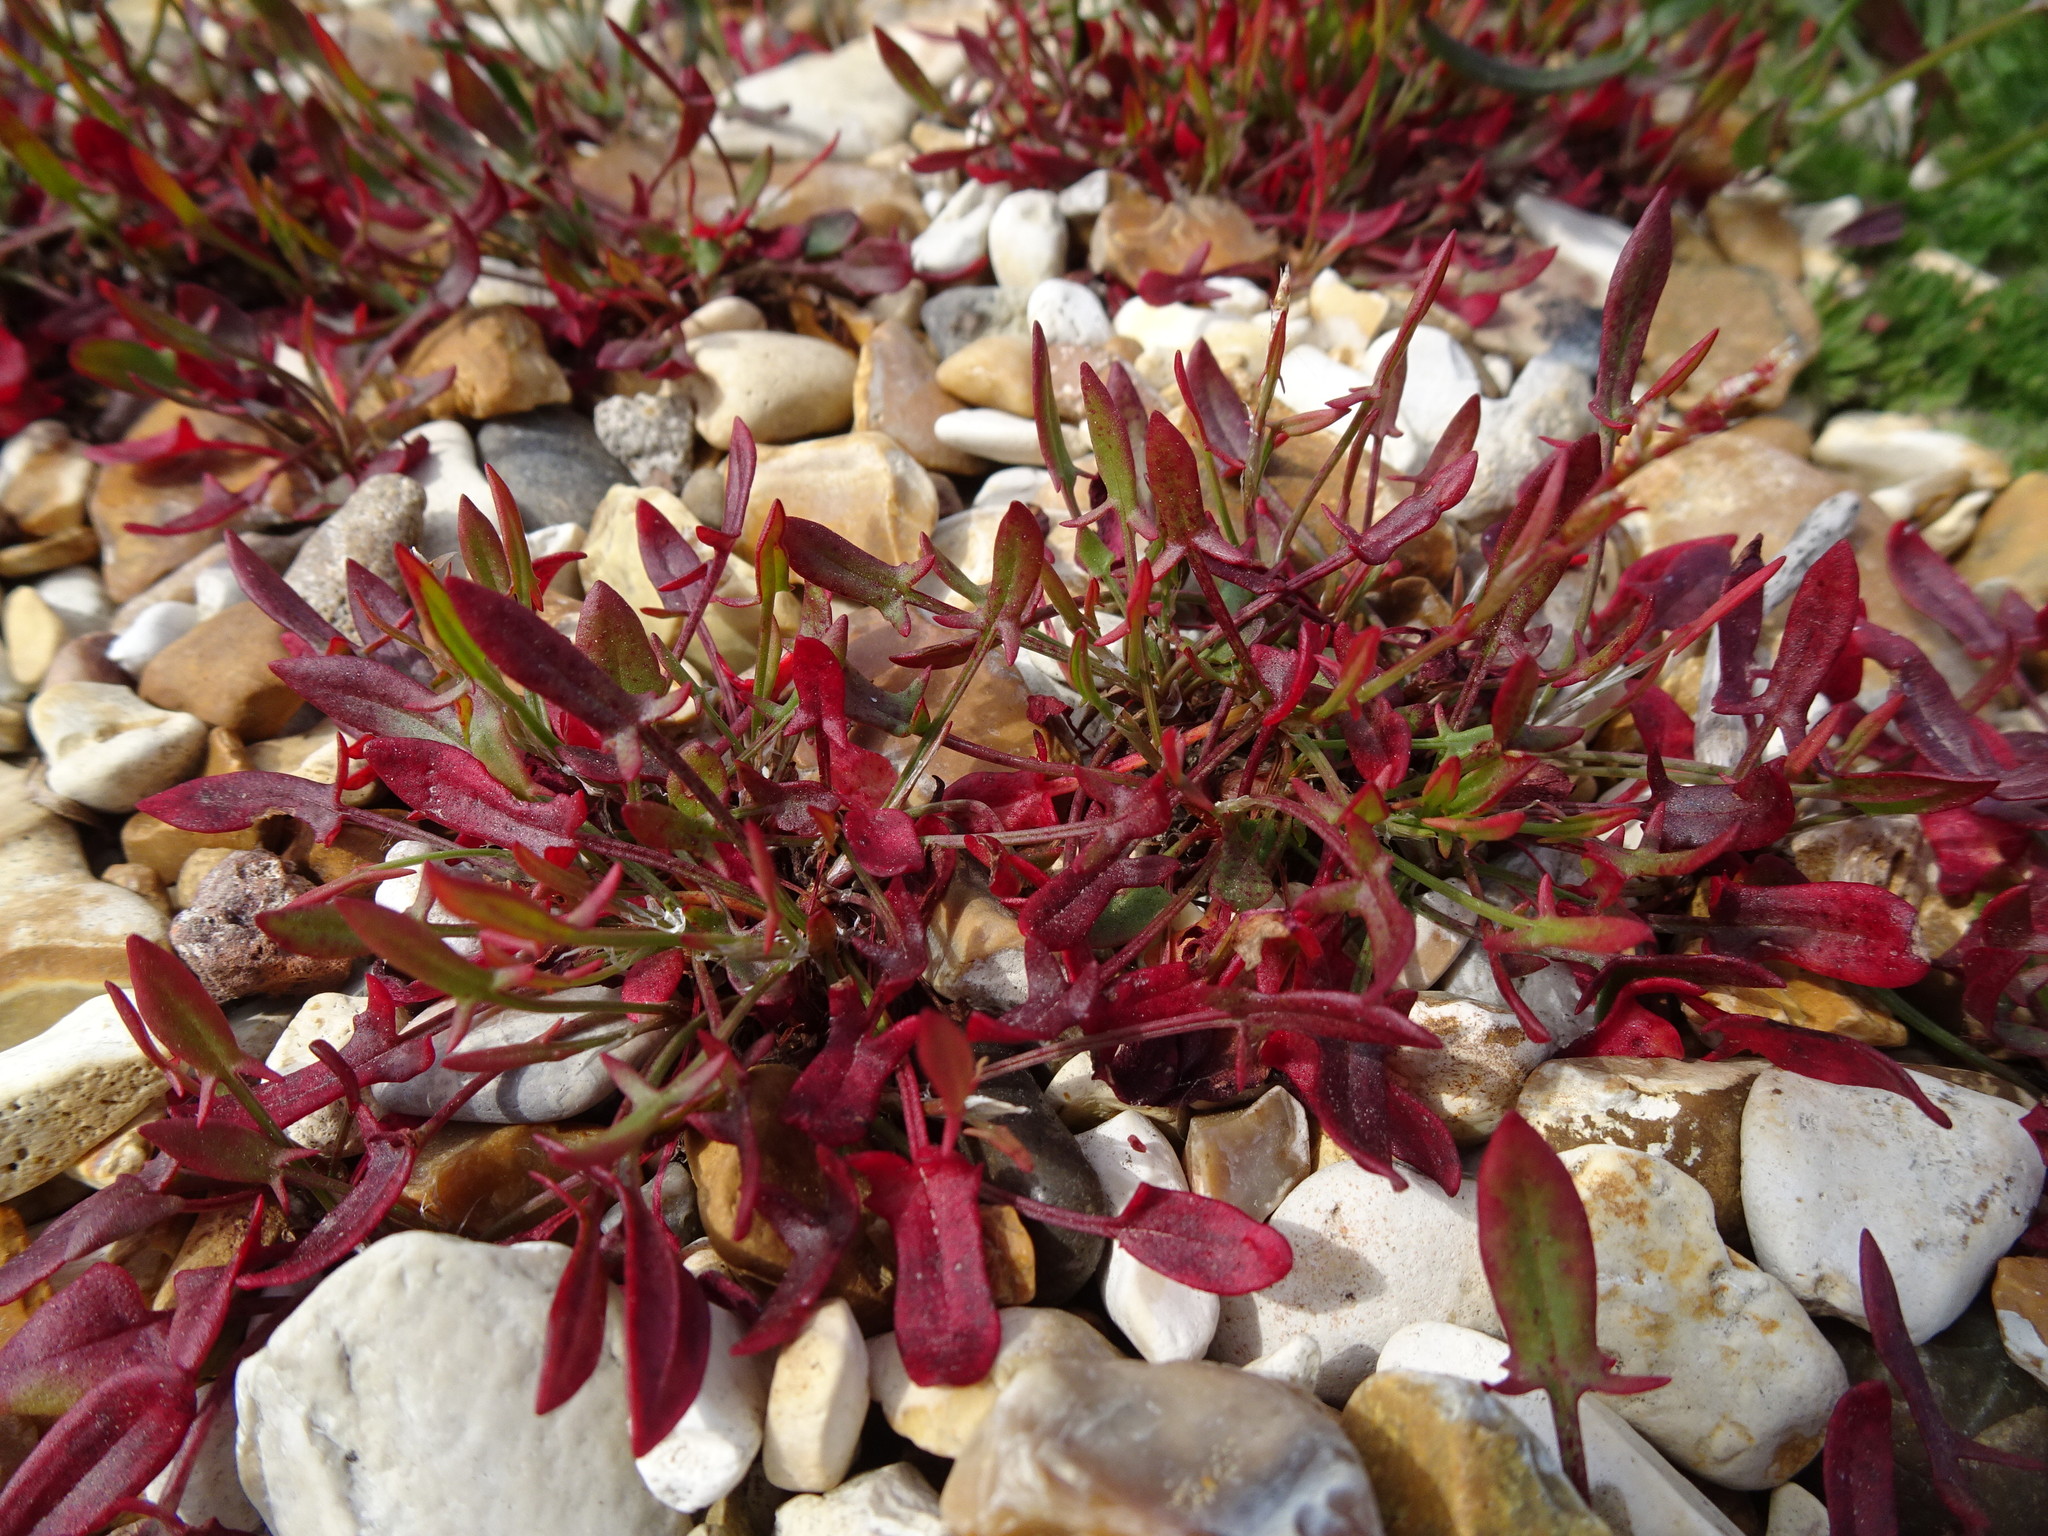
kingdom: Plantae
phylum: Tracheophyta
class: Magnoliopsida
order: Caryophyllales
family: Polygonaceae
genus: Rumex
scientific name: Rumex acetosella
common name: Common sheep sorrel
